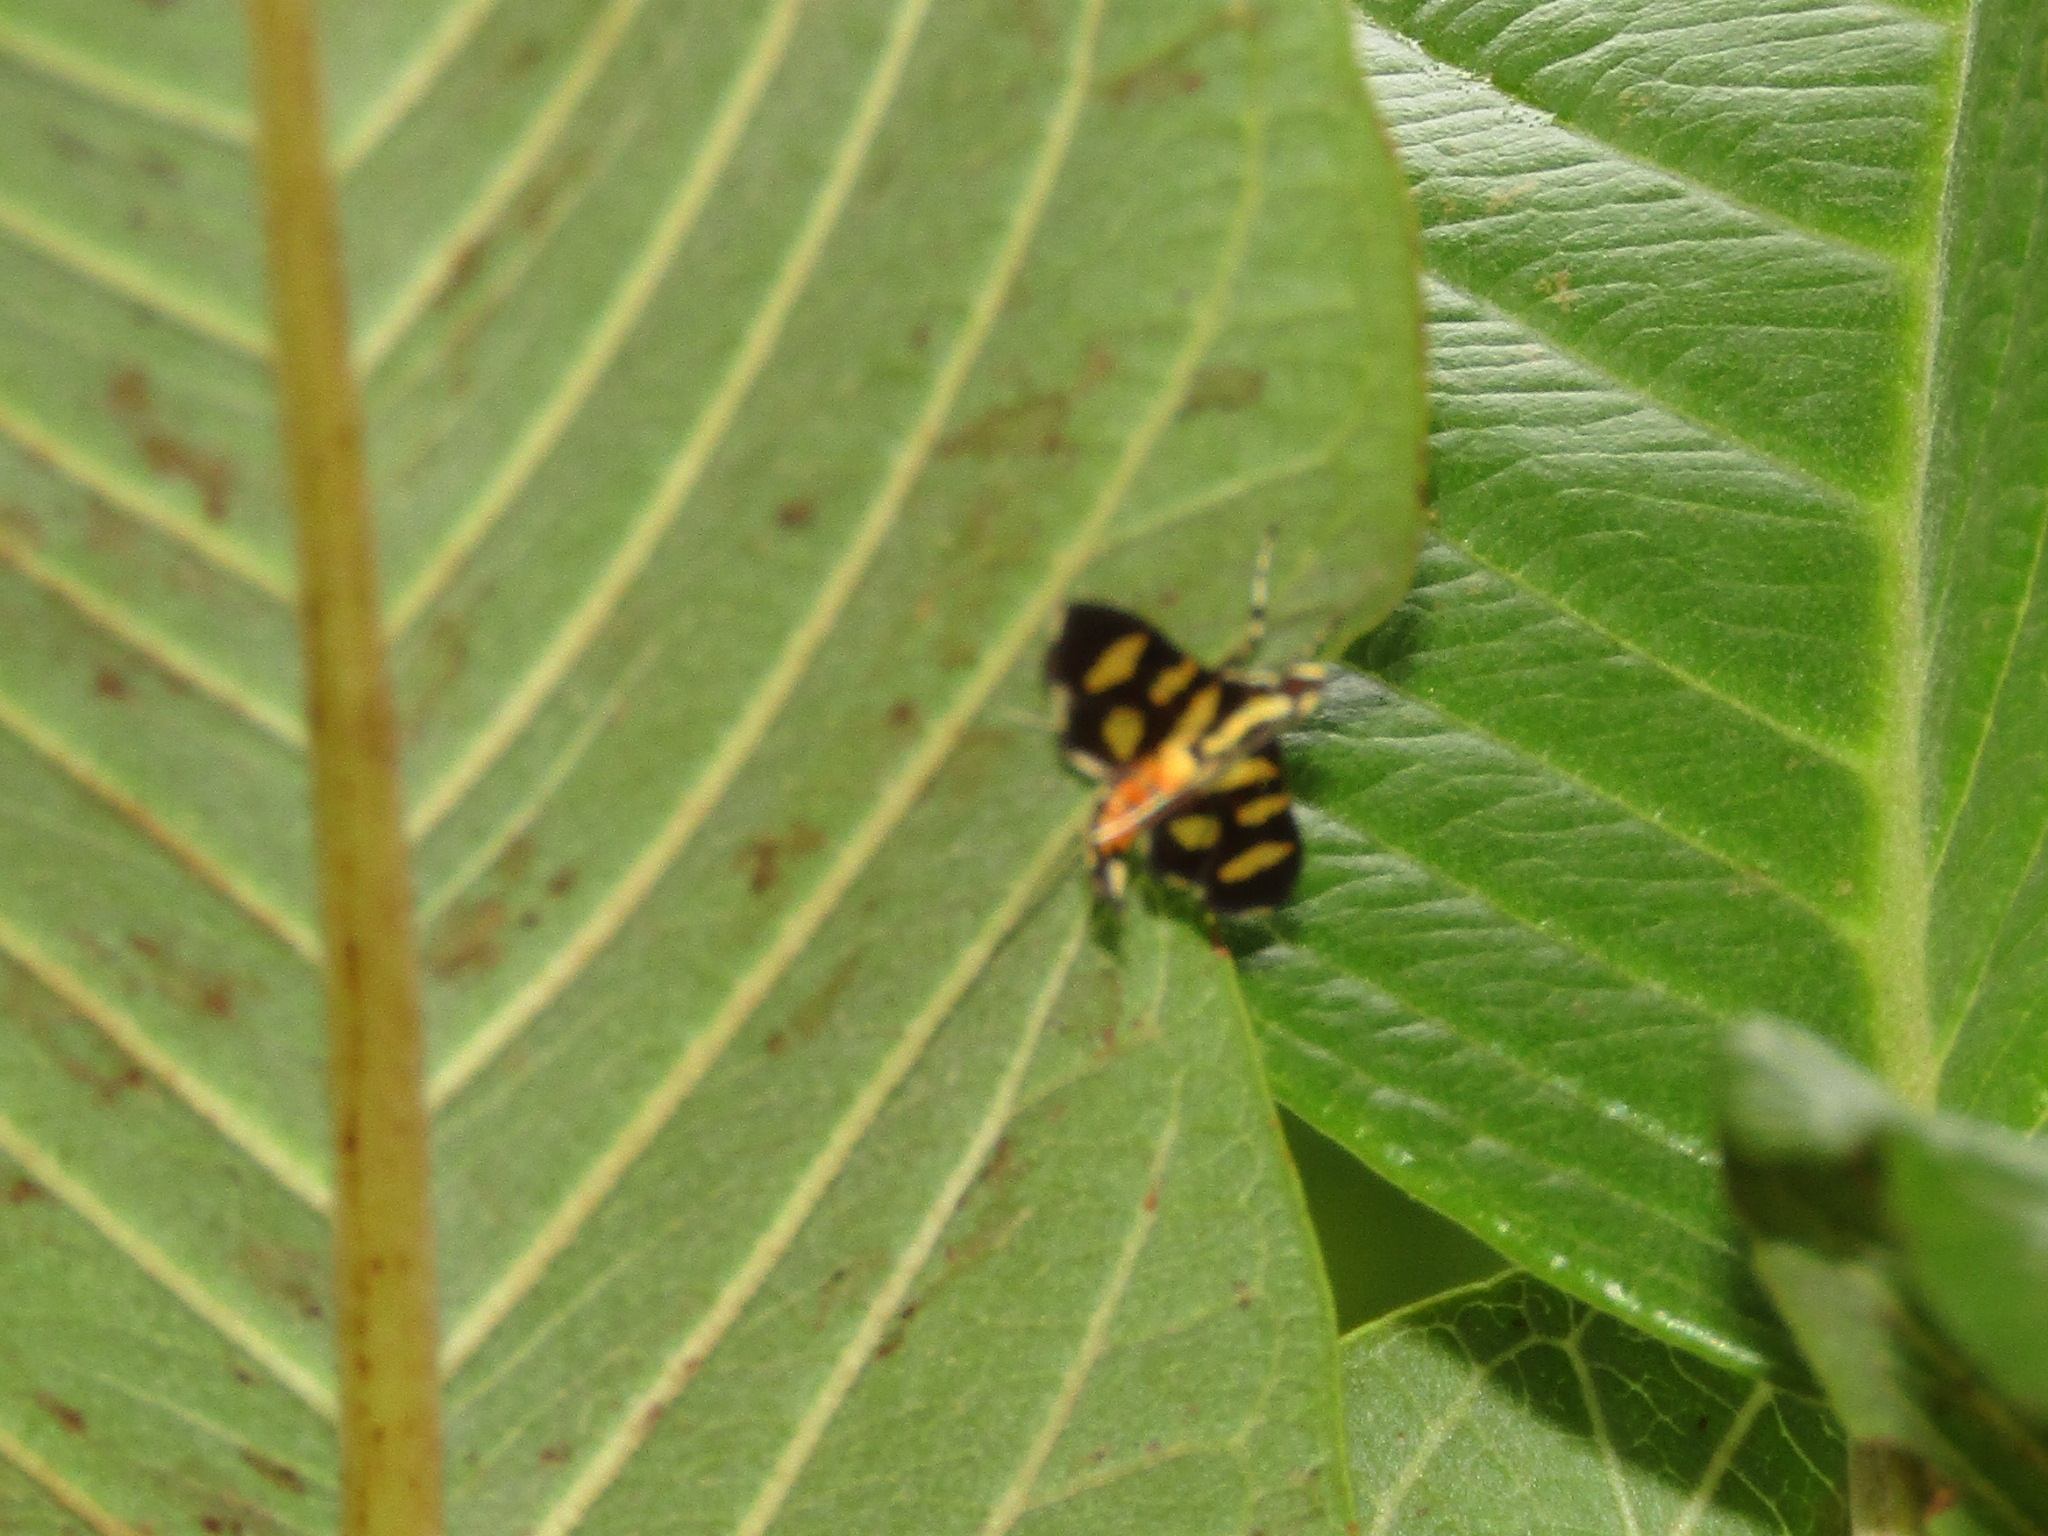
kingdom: Animalia
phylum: Arthropoda
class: Insecta
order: Lepidoptera
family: Crambidae
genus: Syngamia
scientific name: Syngamia florella
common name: Orange-spotted flower moth
